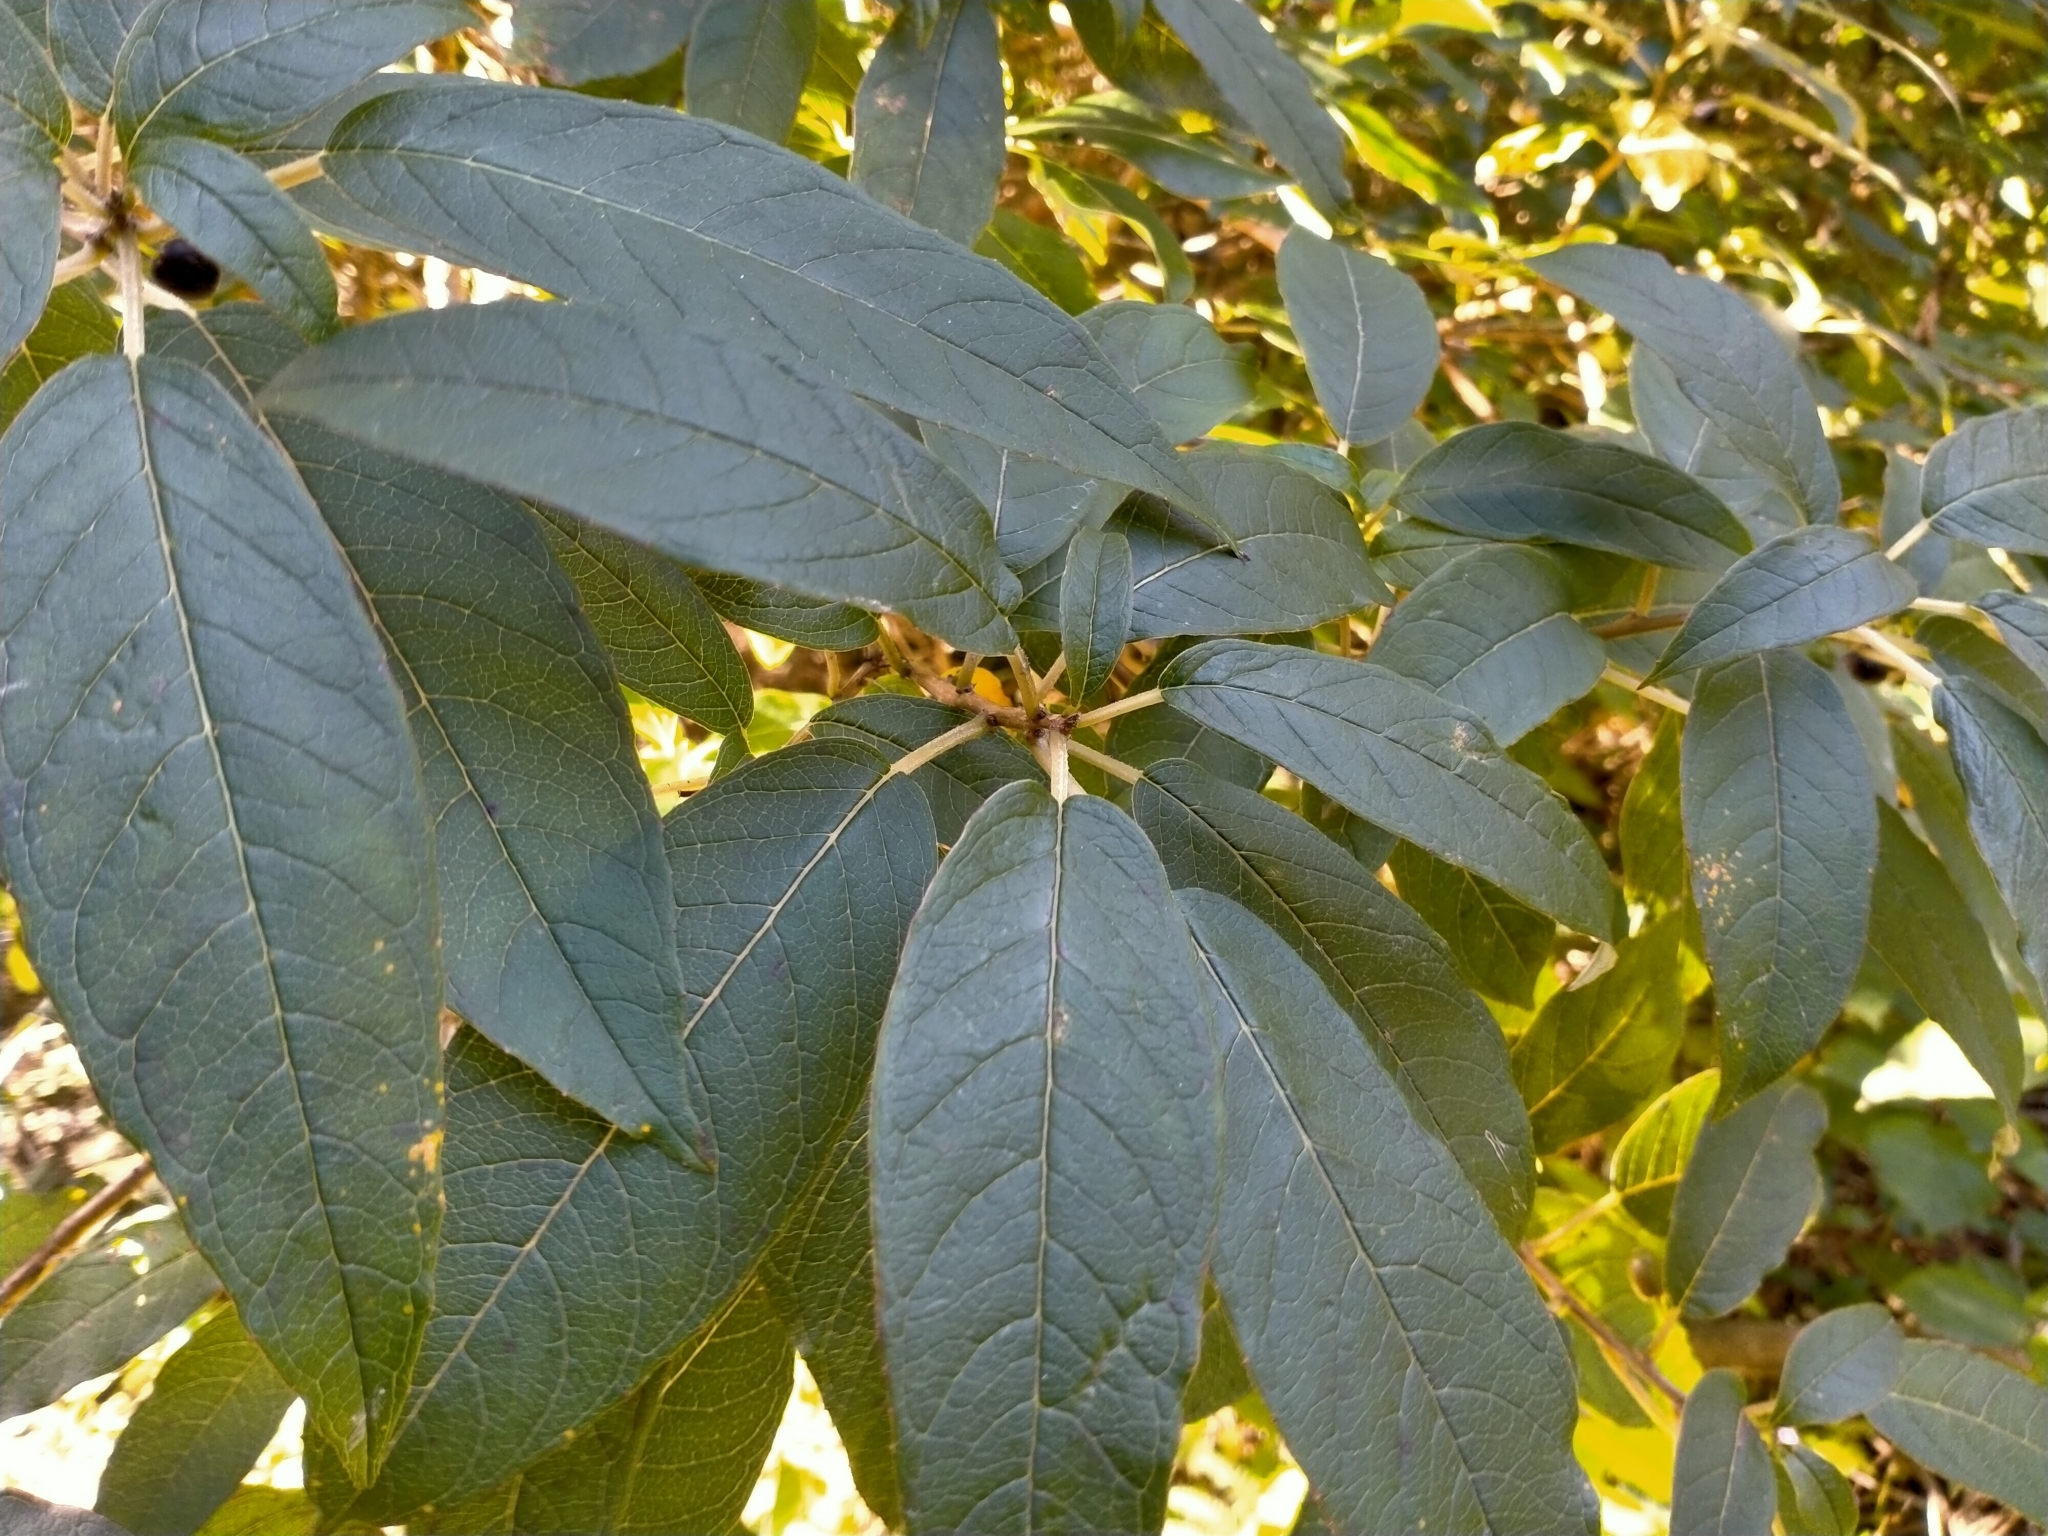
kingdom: Plantae
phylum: Tracheophyta
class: Magnoliopsida
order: Myrtales
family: Onagraceae
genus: Fuchsia
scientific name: Fuchsia excorticata
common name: Tree fuchsia
